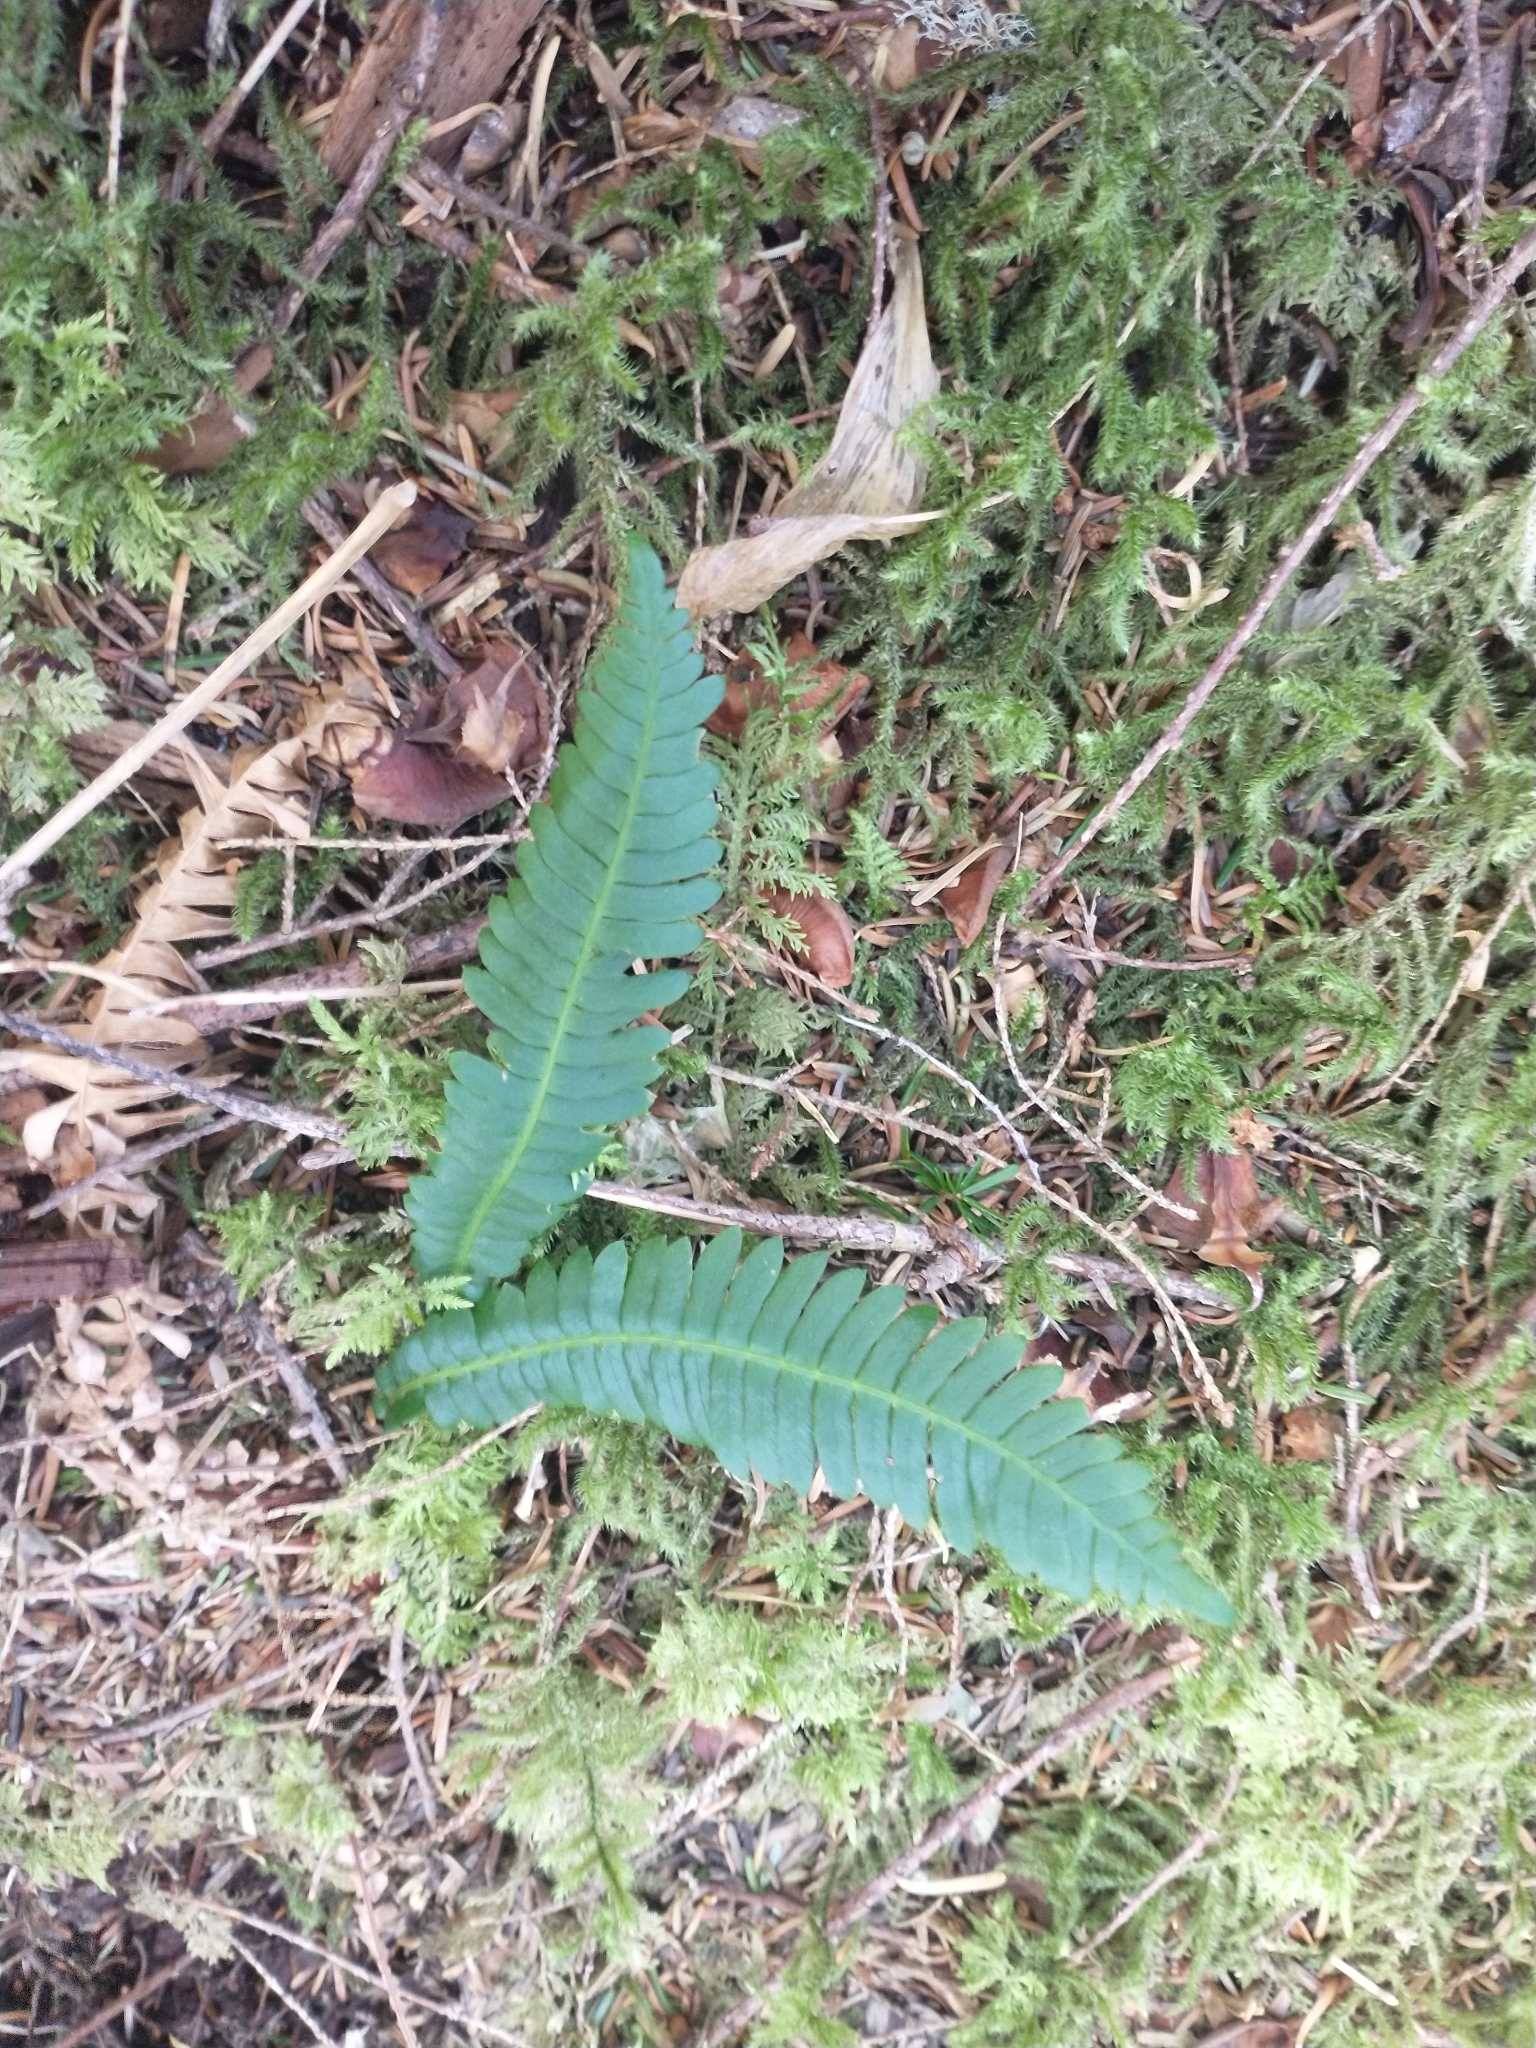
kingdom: Plantae
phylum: Tracheophyta
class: Polypodiopsida
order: Polypodiales
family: Blechnaceae
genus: Struthiopteris
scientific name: Struthiopteris spicant
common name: Deer fern
